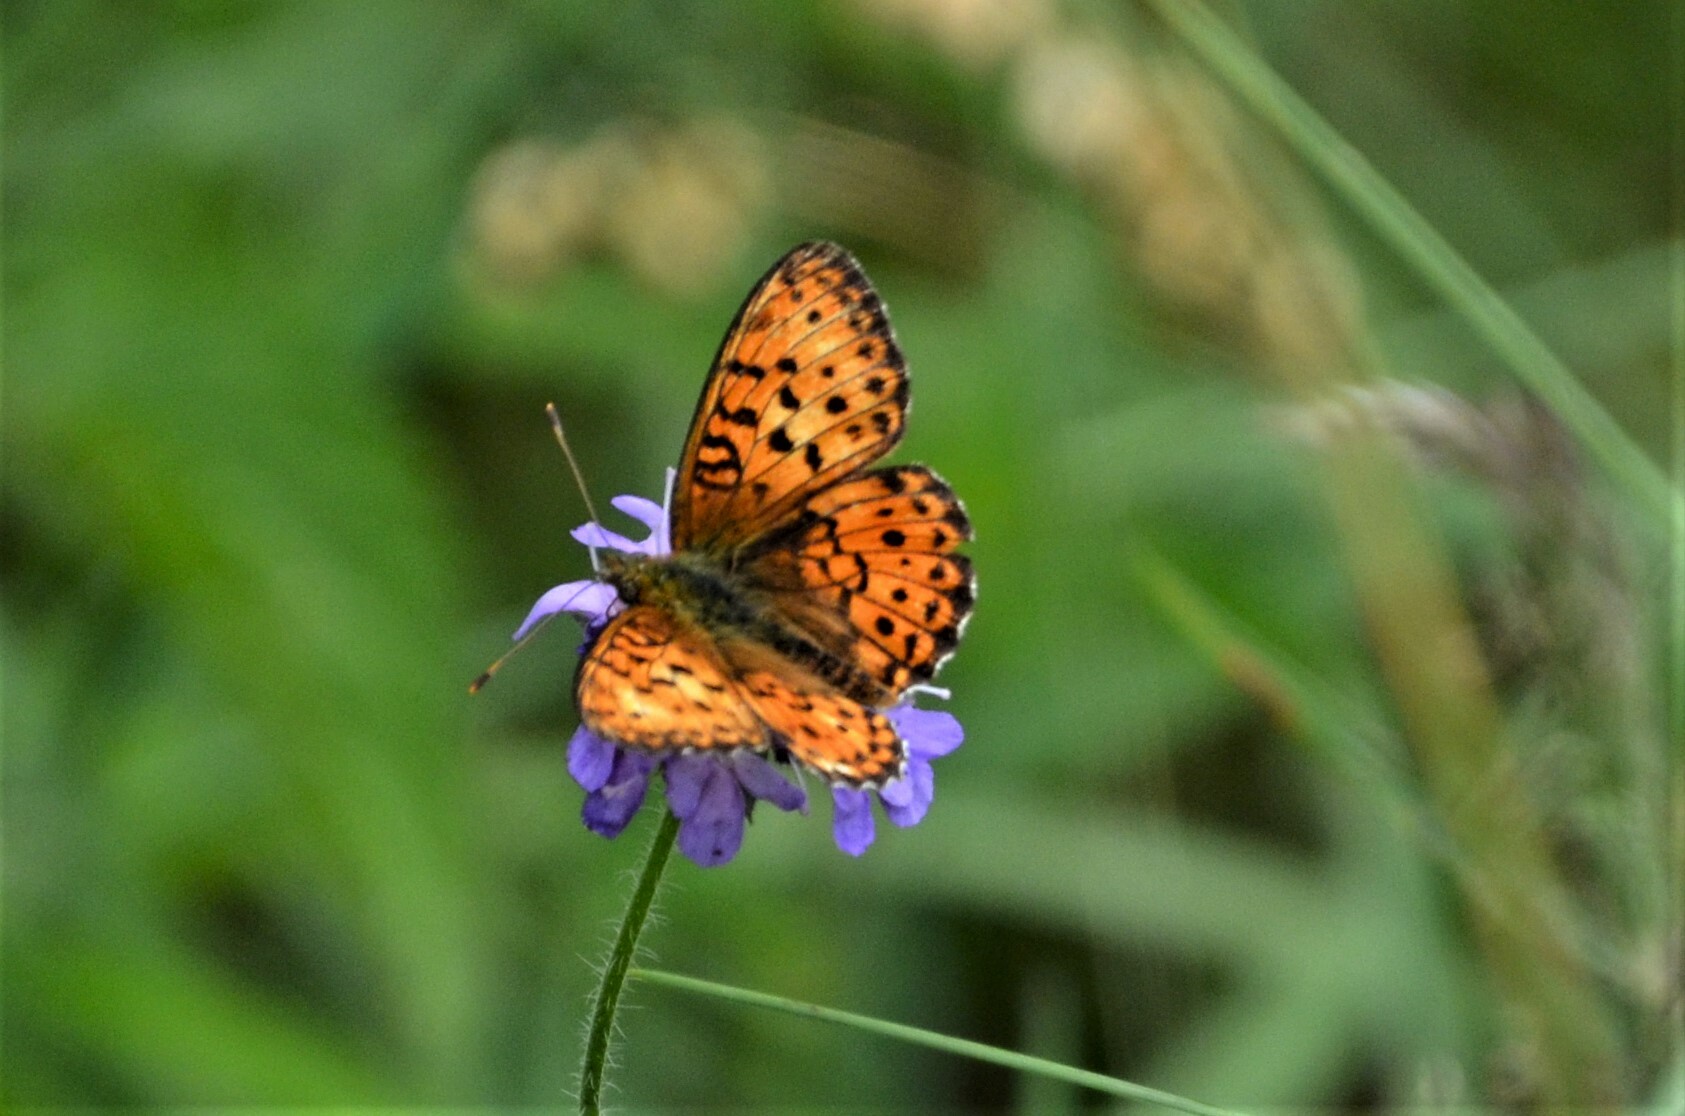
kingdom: Animalia
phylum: Arthropoda
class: Insecta
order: Lepidoptera
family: Nymphalidae
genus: Brenthis
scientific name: Brenthis ino
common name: Lesser marbled fritillary
